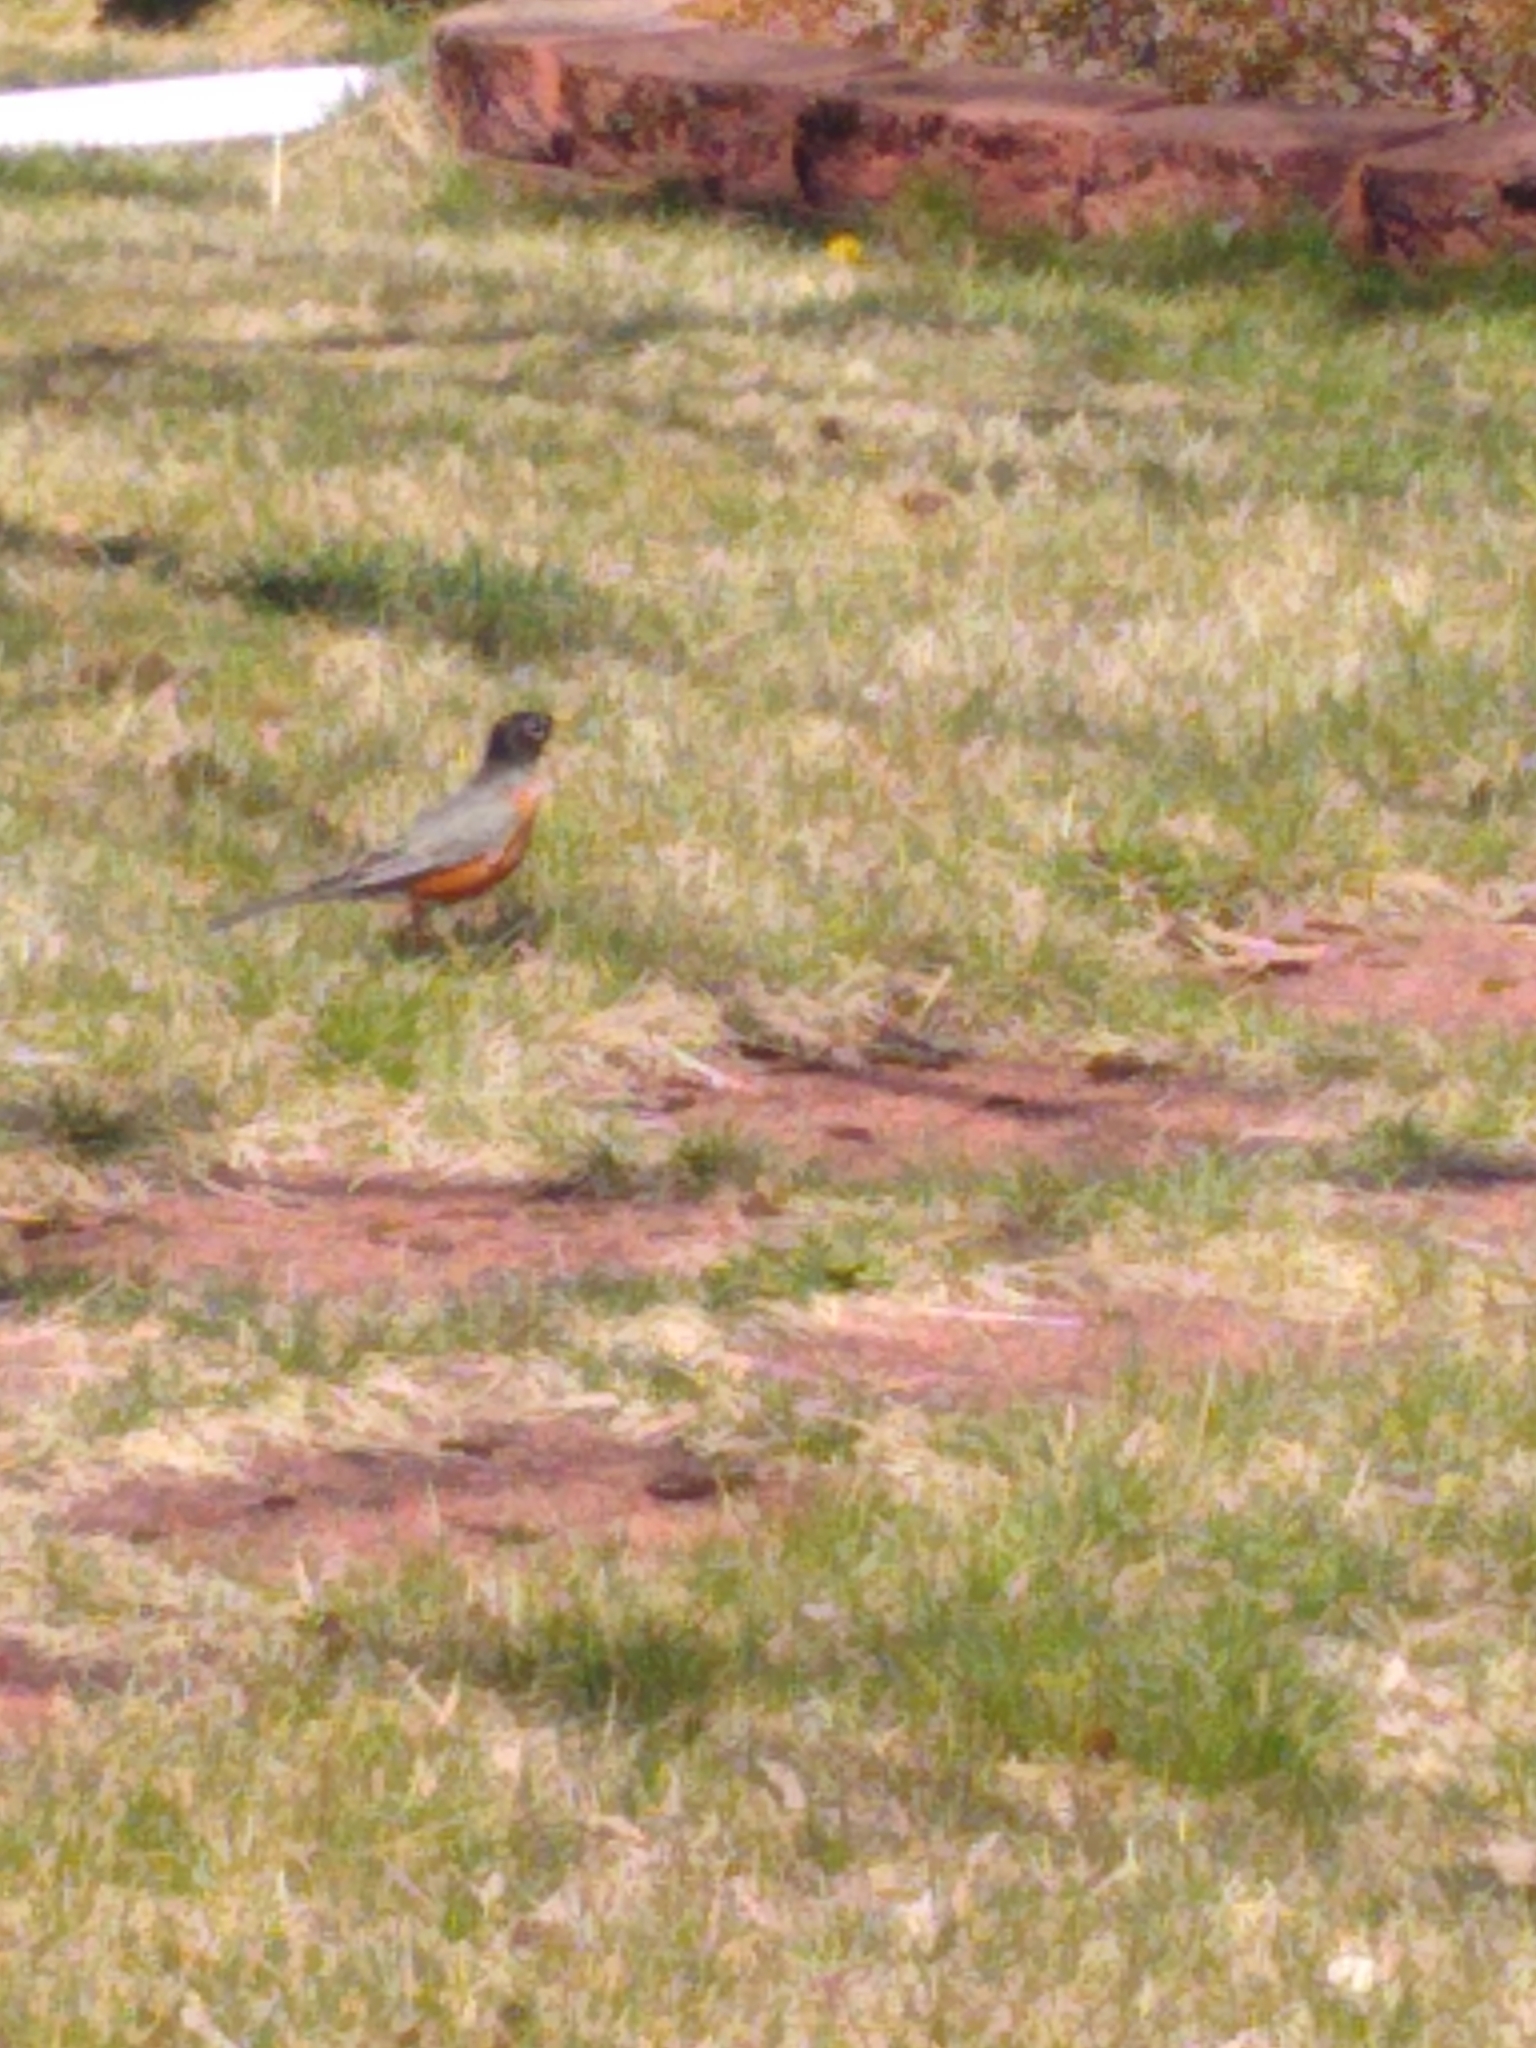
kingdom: Animalia
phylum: Chordata
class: Aves
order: Passeriformes
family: Turdidae
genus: Turdus
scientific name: Turdus migratorius
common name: American robin
